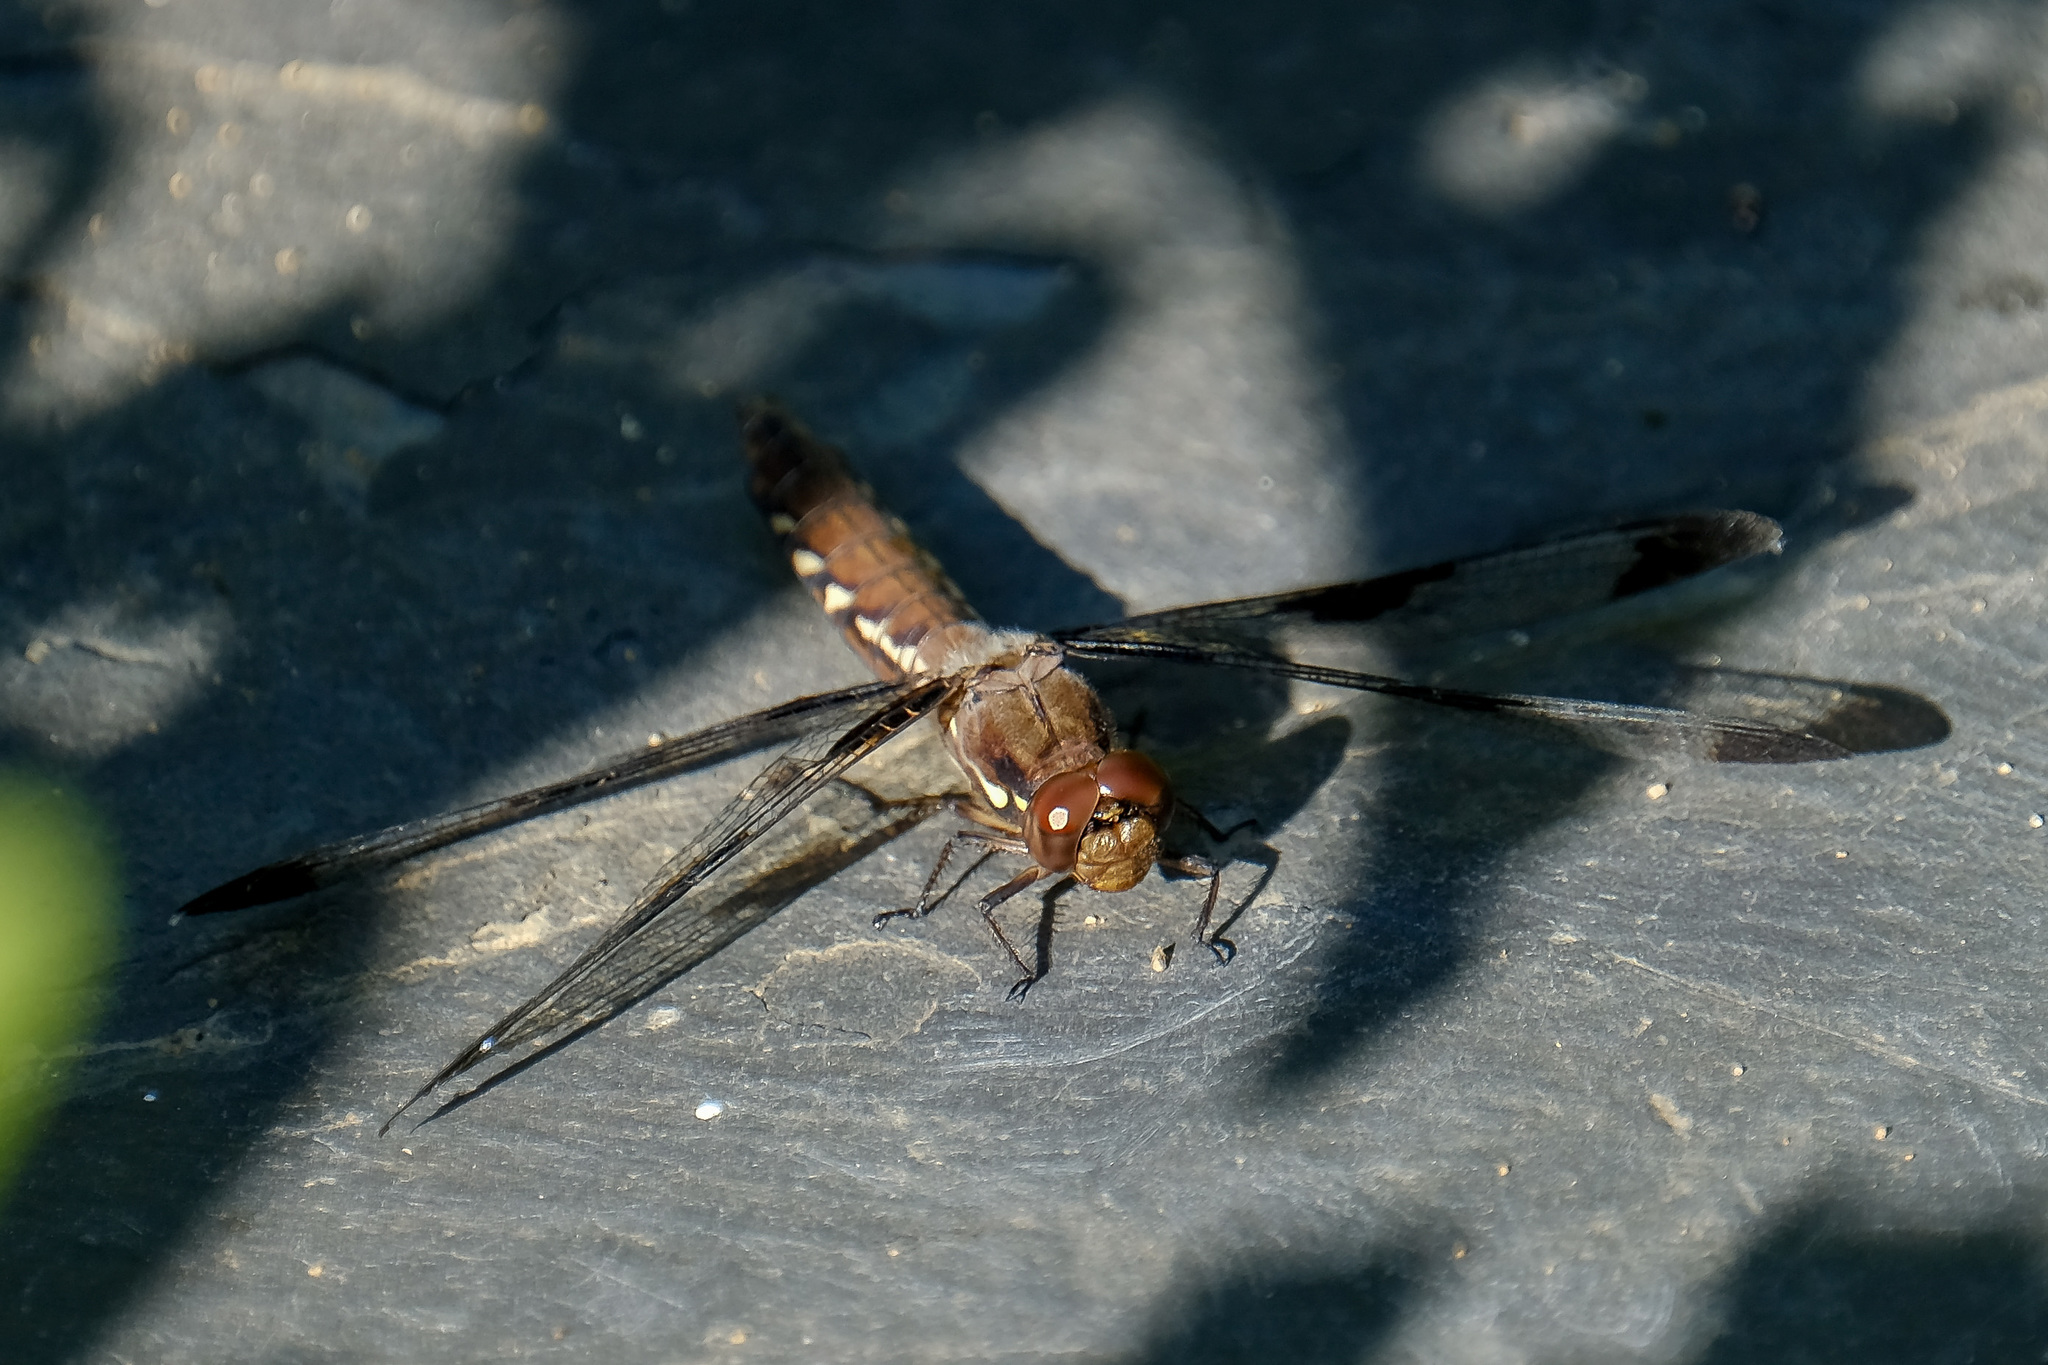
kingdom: Animalia
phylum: Arthropoda
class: Insecta
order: Odonata
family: Libellulidae
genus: Plathemis
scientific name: Plathemis lydia
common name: Common whitetail
